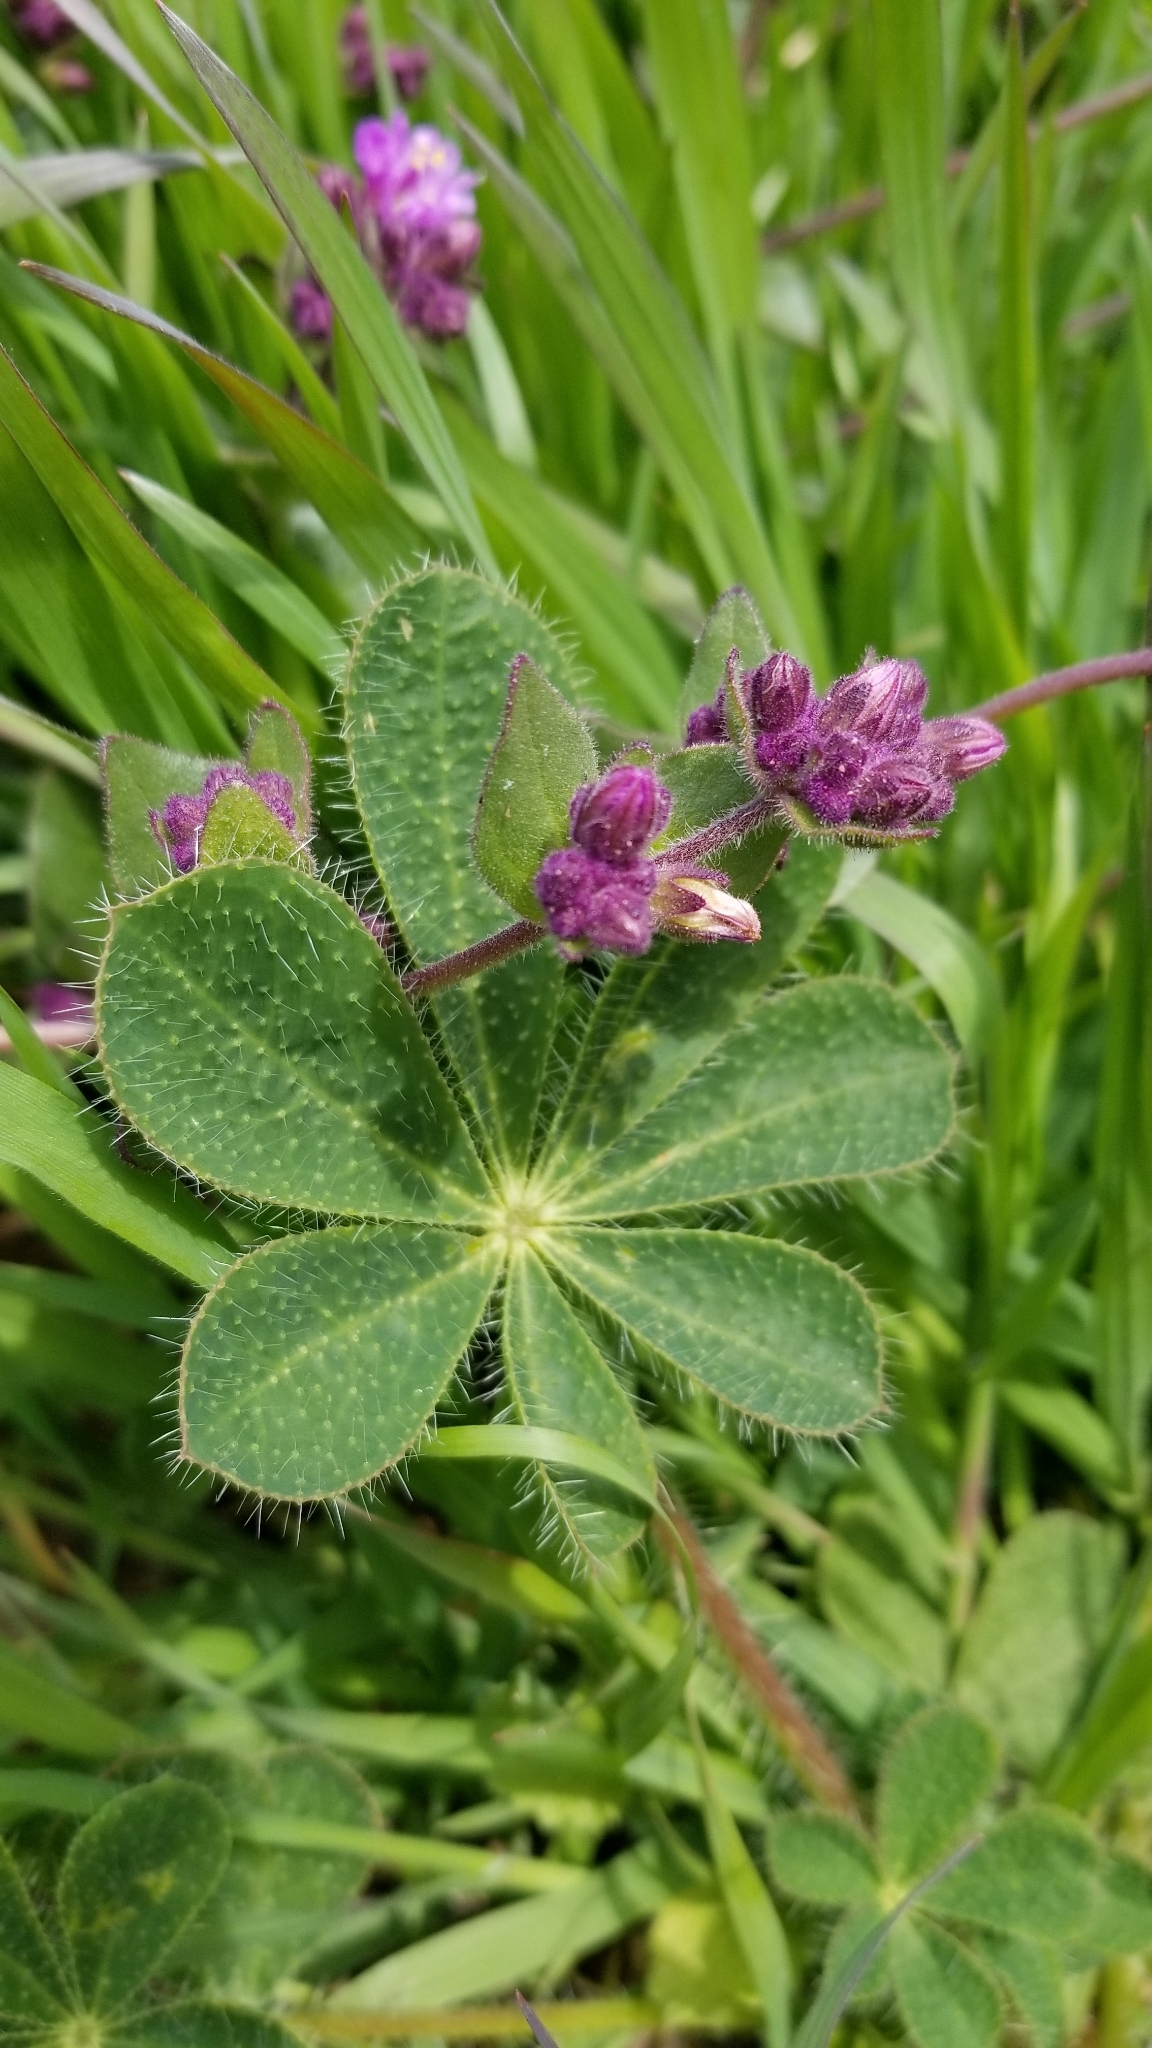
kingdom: Plantae
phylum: Tracheophyta
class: Magnoliopsida
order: Fabales
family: Fabaceae
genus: Lupinus
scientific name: Lupinus hirsutissimus
